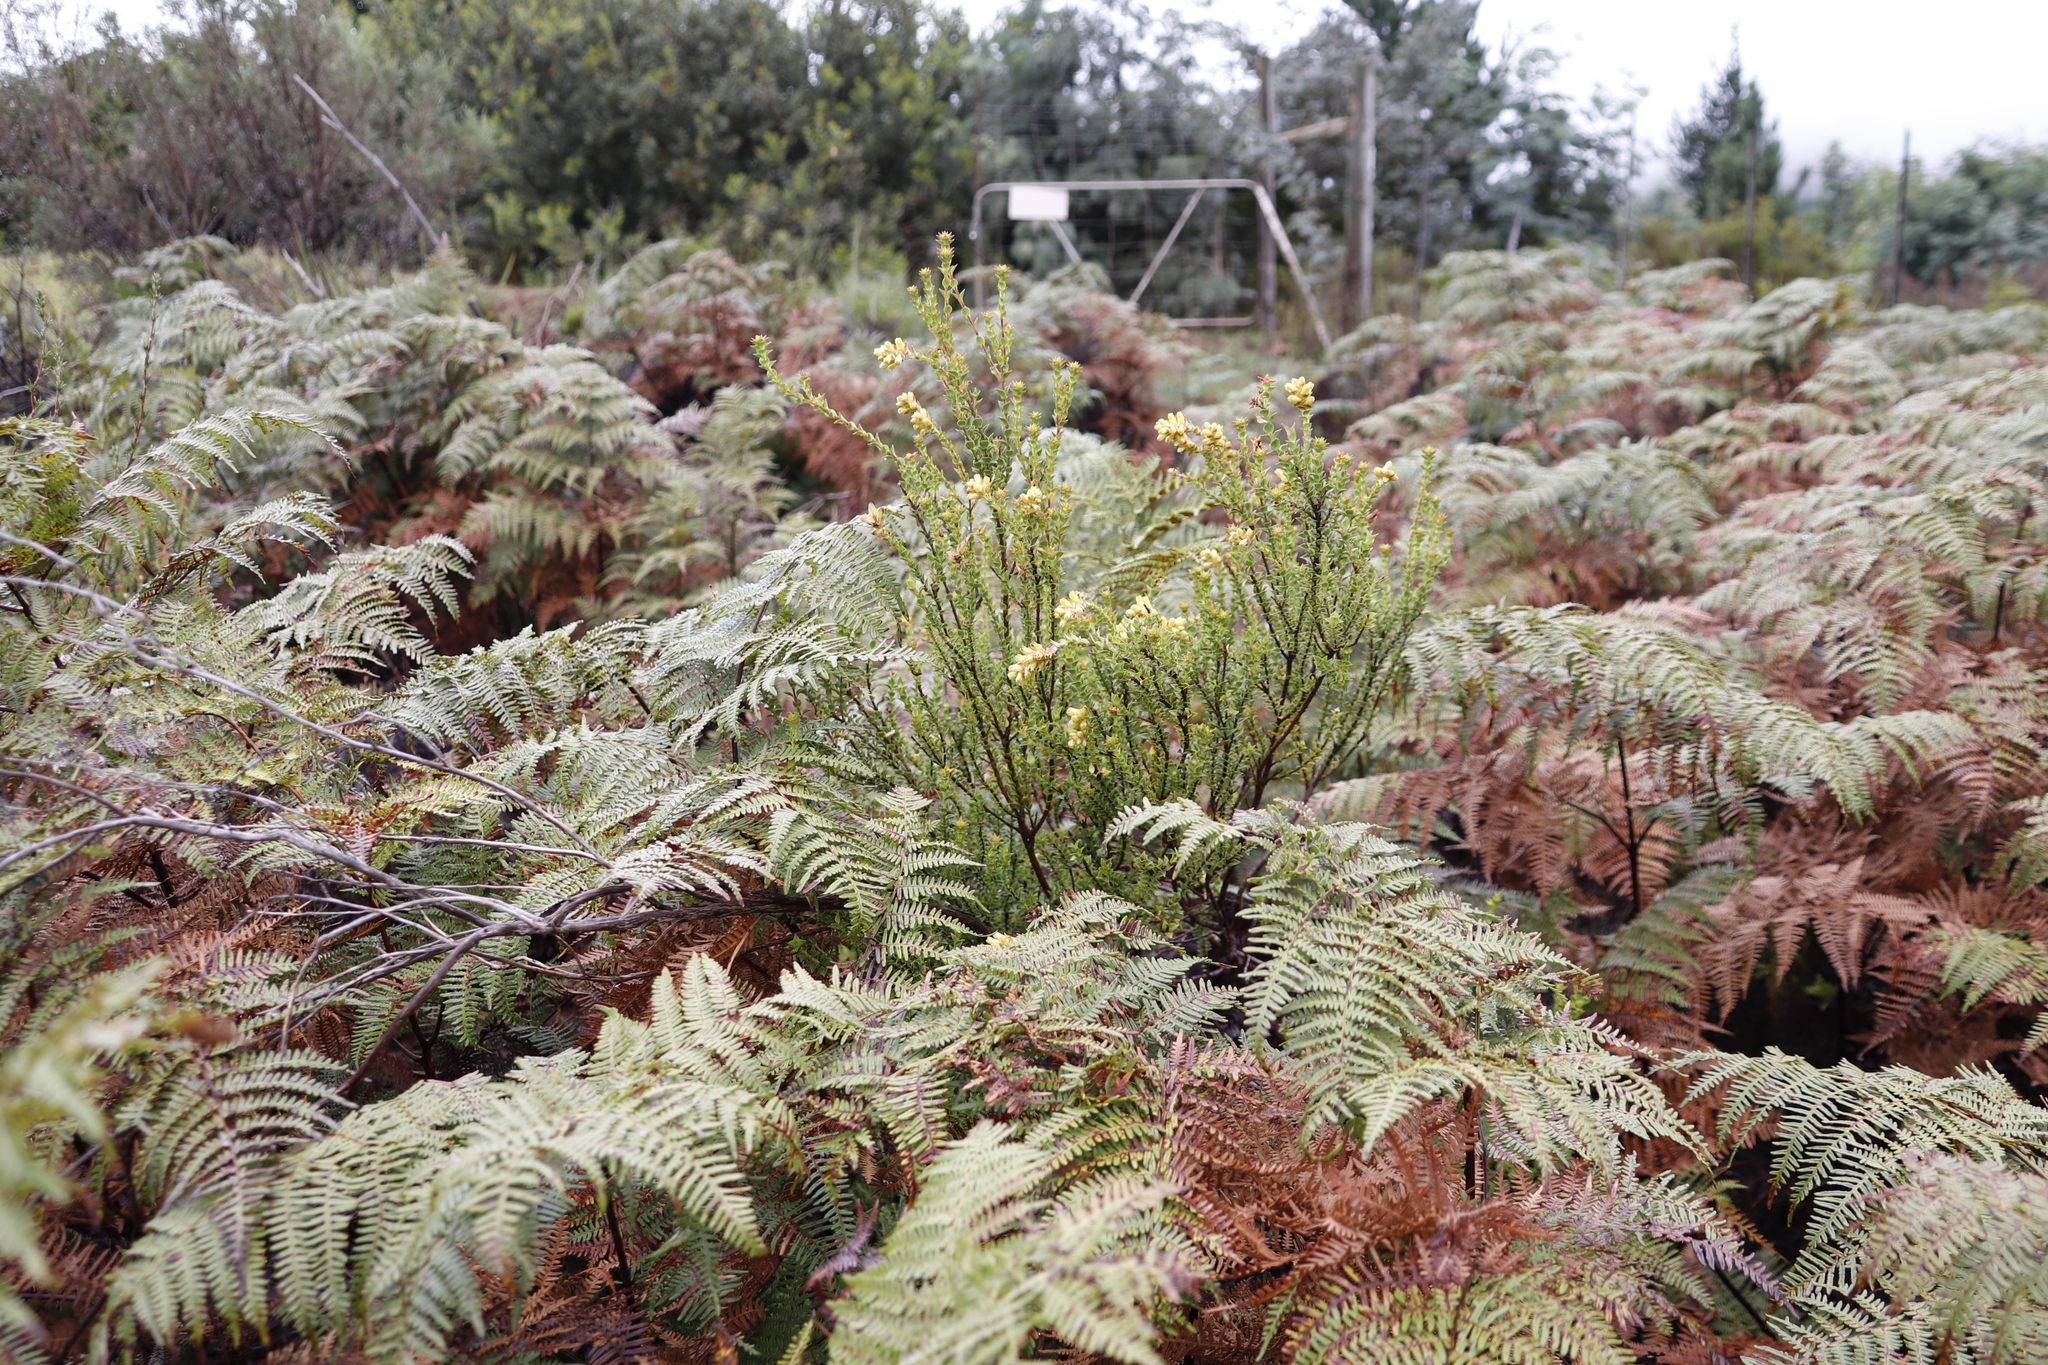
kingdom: Plantae
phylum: Tracheophyta
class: Magnoliopsida
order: Myrtales
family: Penaeaceae
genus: Penaea
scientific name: Penaea cneorum
